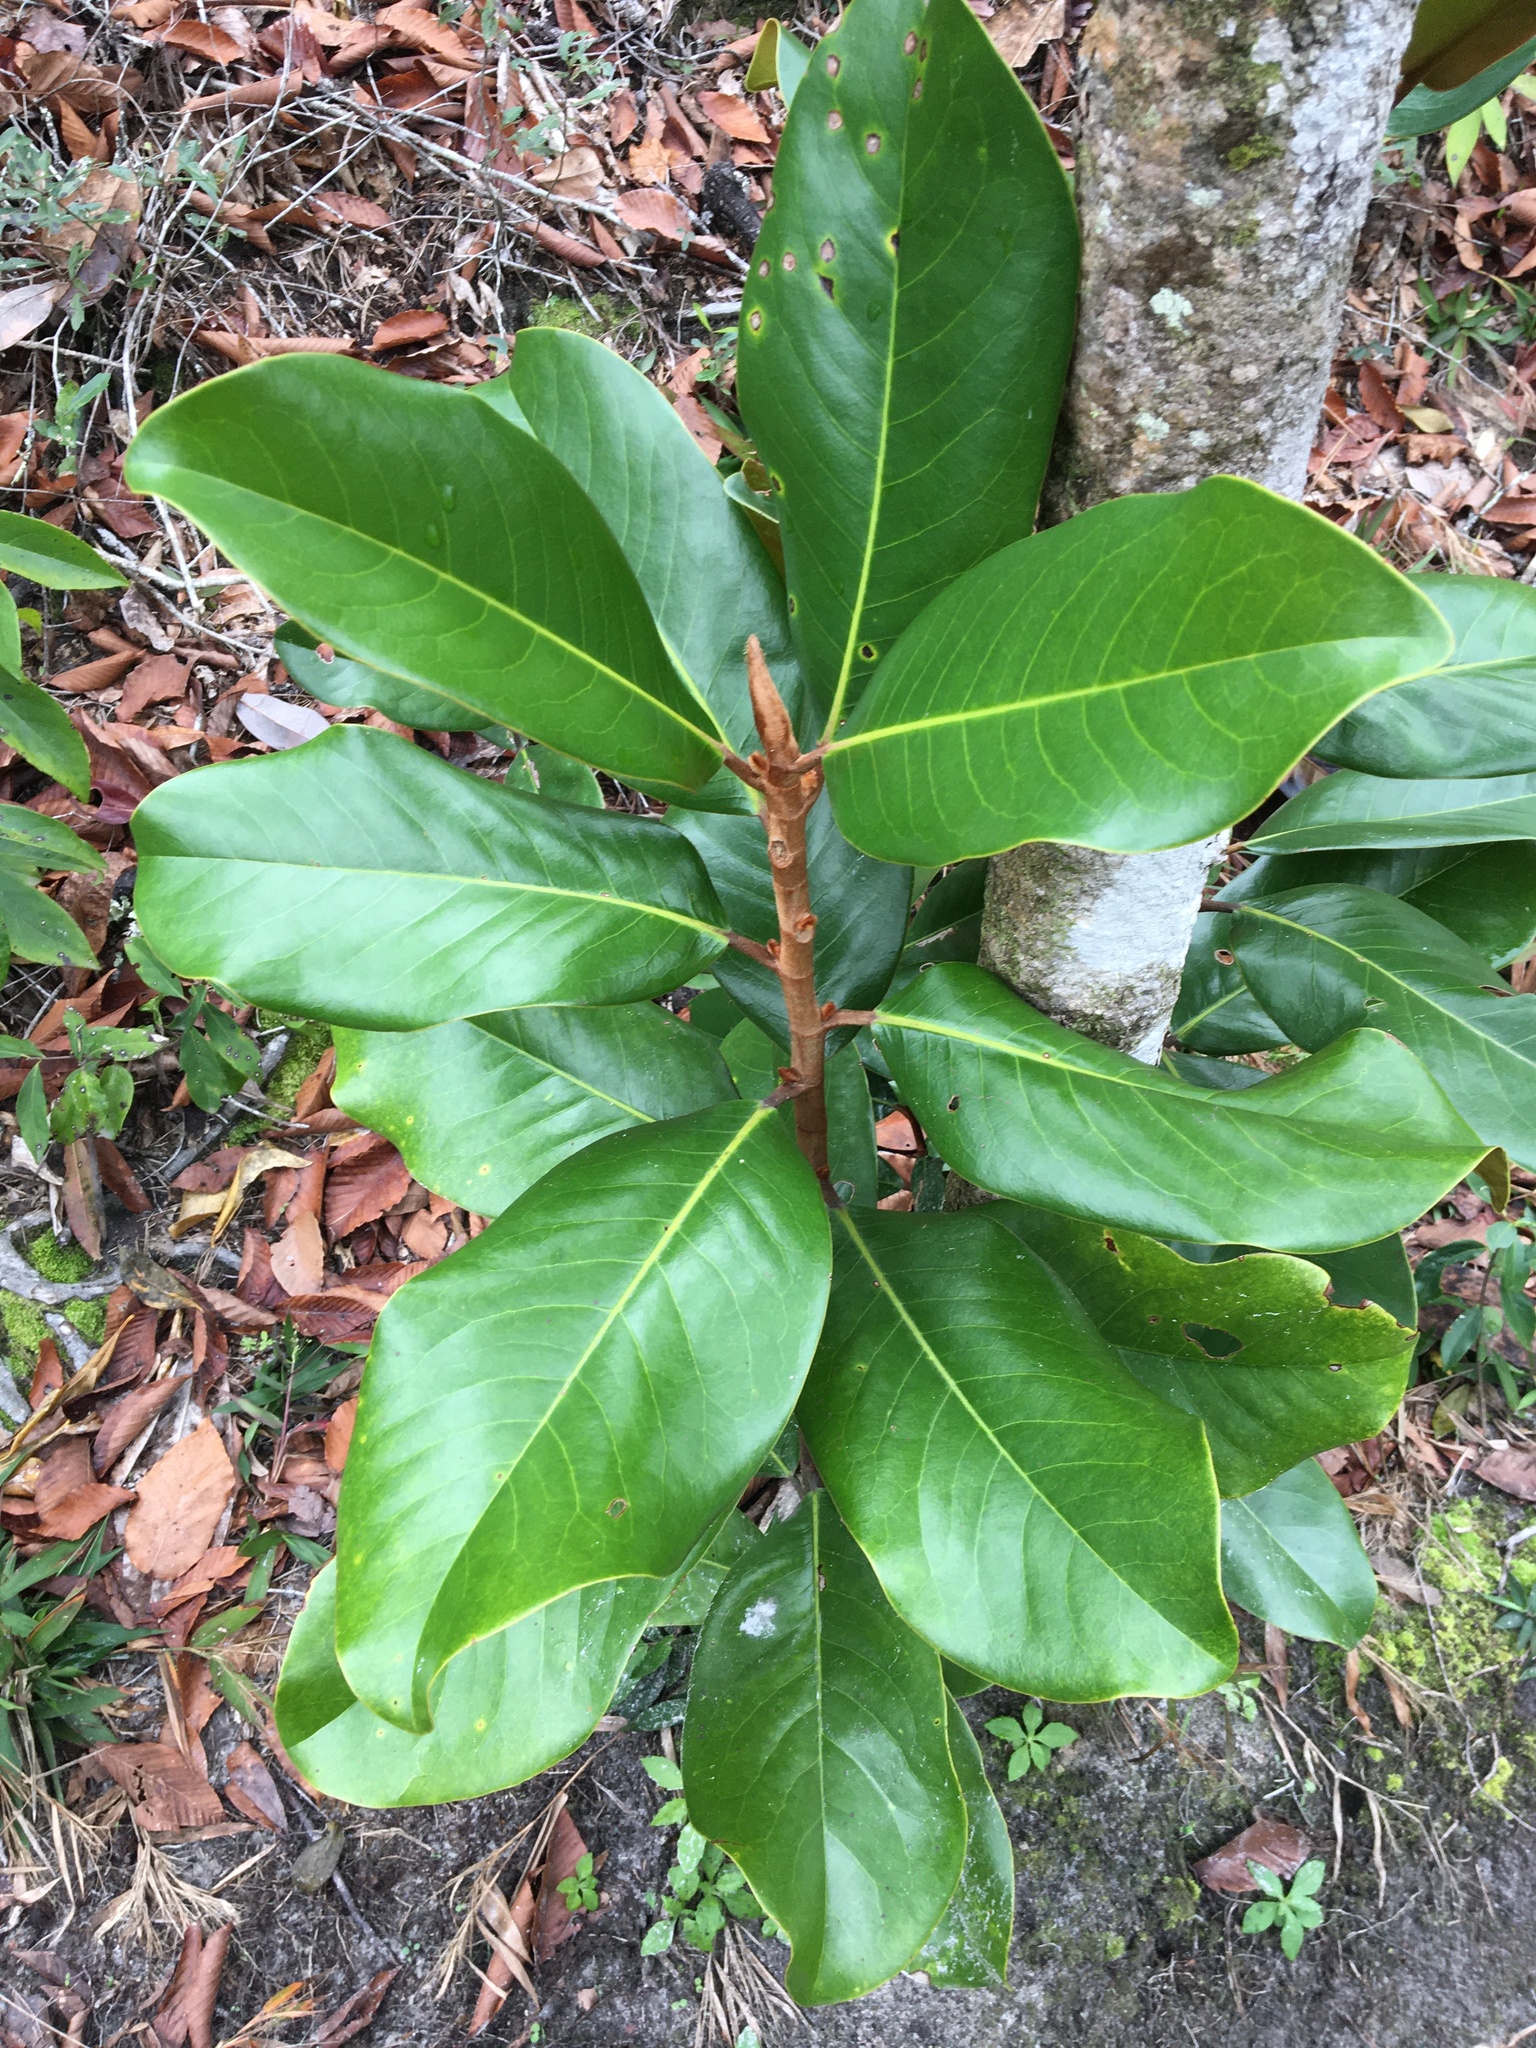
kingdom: Plantae
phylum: Tracheophyta
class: Magnoliopsida
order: Magnoliales
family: Magnoliaceae
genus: Magnolia
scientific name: Magnolia grandiflora
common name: Southern magnolia
